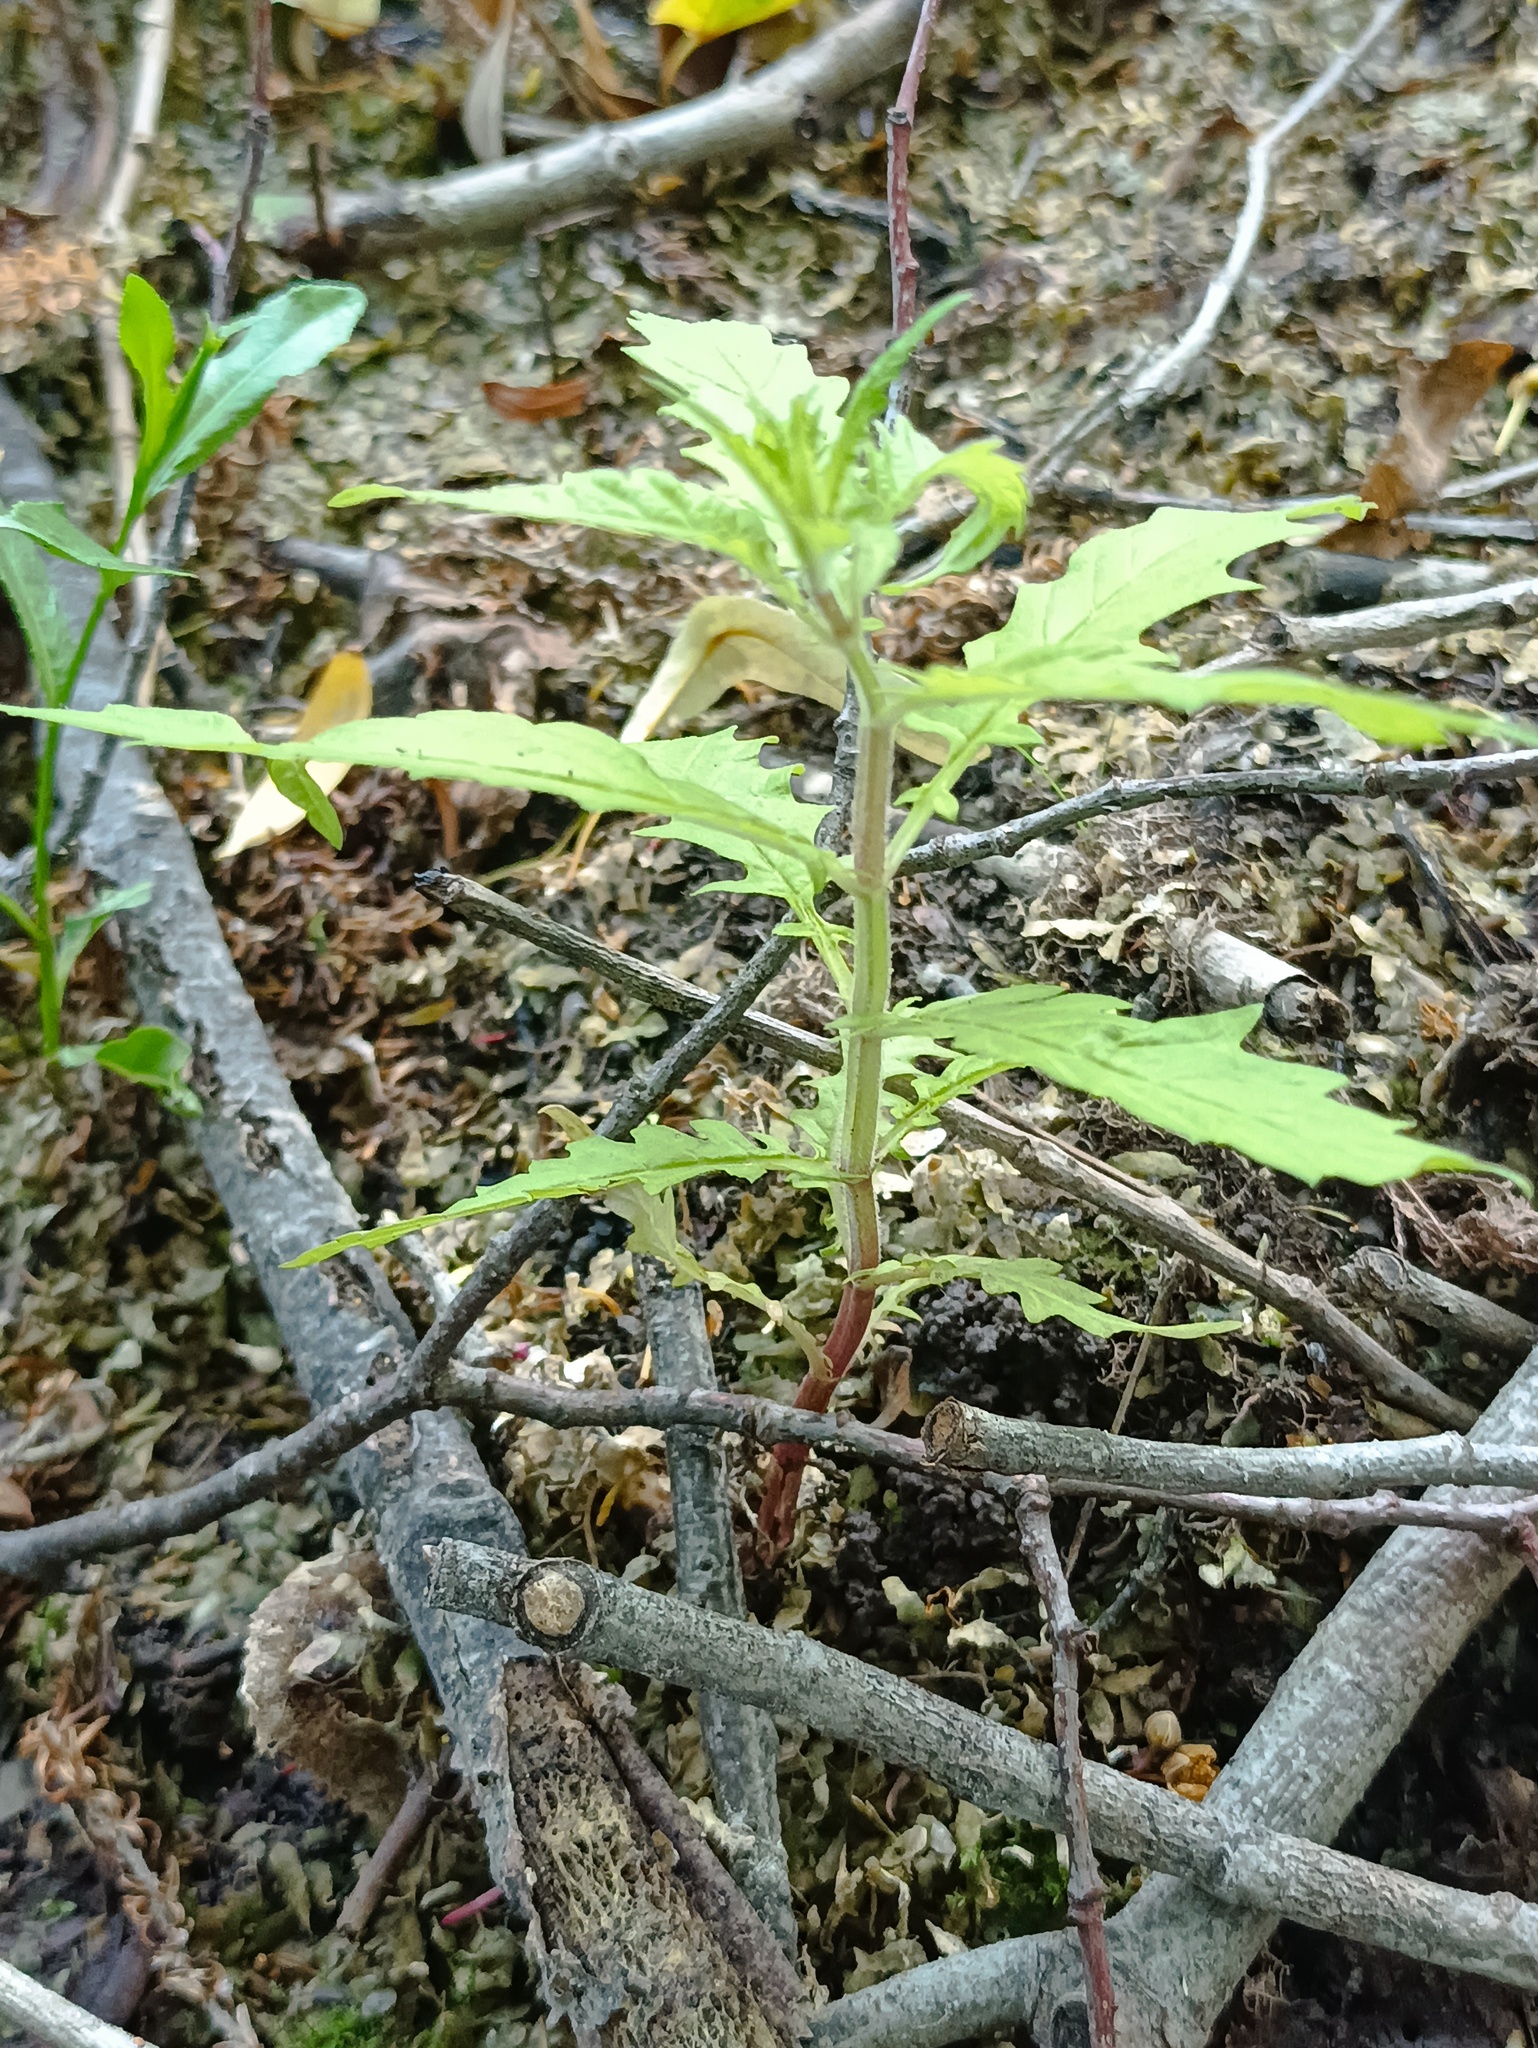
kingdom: Plantae
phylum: Tracheophyta
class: Magnoliopsida
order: Lamiales
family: Lamiaceae
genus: Lycopus
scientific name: Lycopus europaeus
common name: European bugleweed
